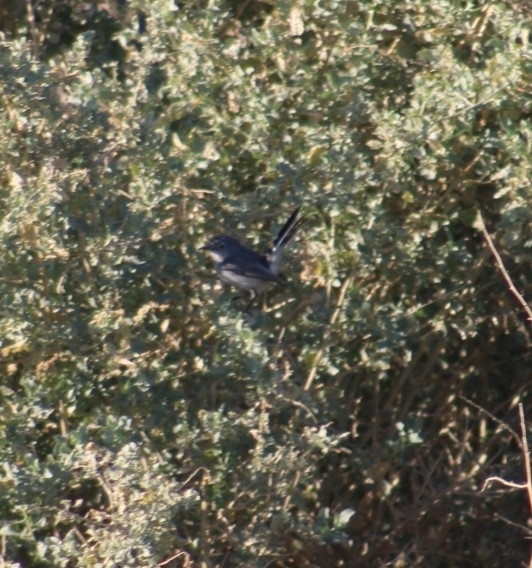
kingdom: Animalia
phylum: Chordata
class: Aves
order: Passeriformes
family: Polioptilidae
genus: Polioptila
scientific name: Polioptila caerulea
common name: Blue-gray gnatcatcher
